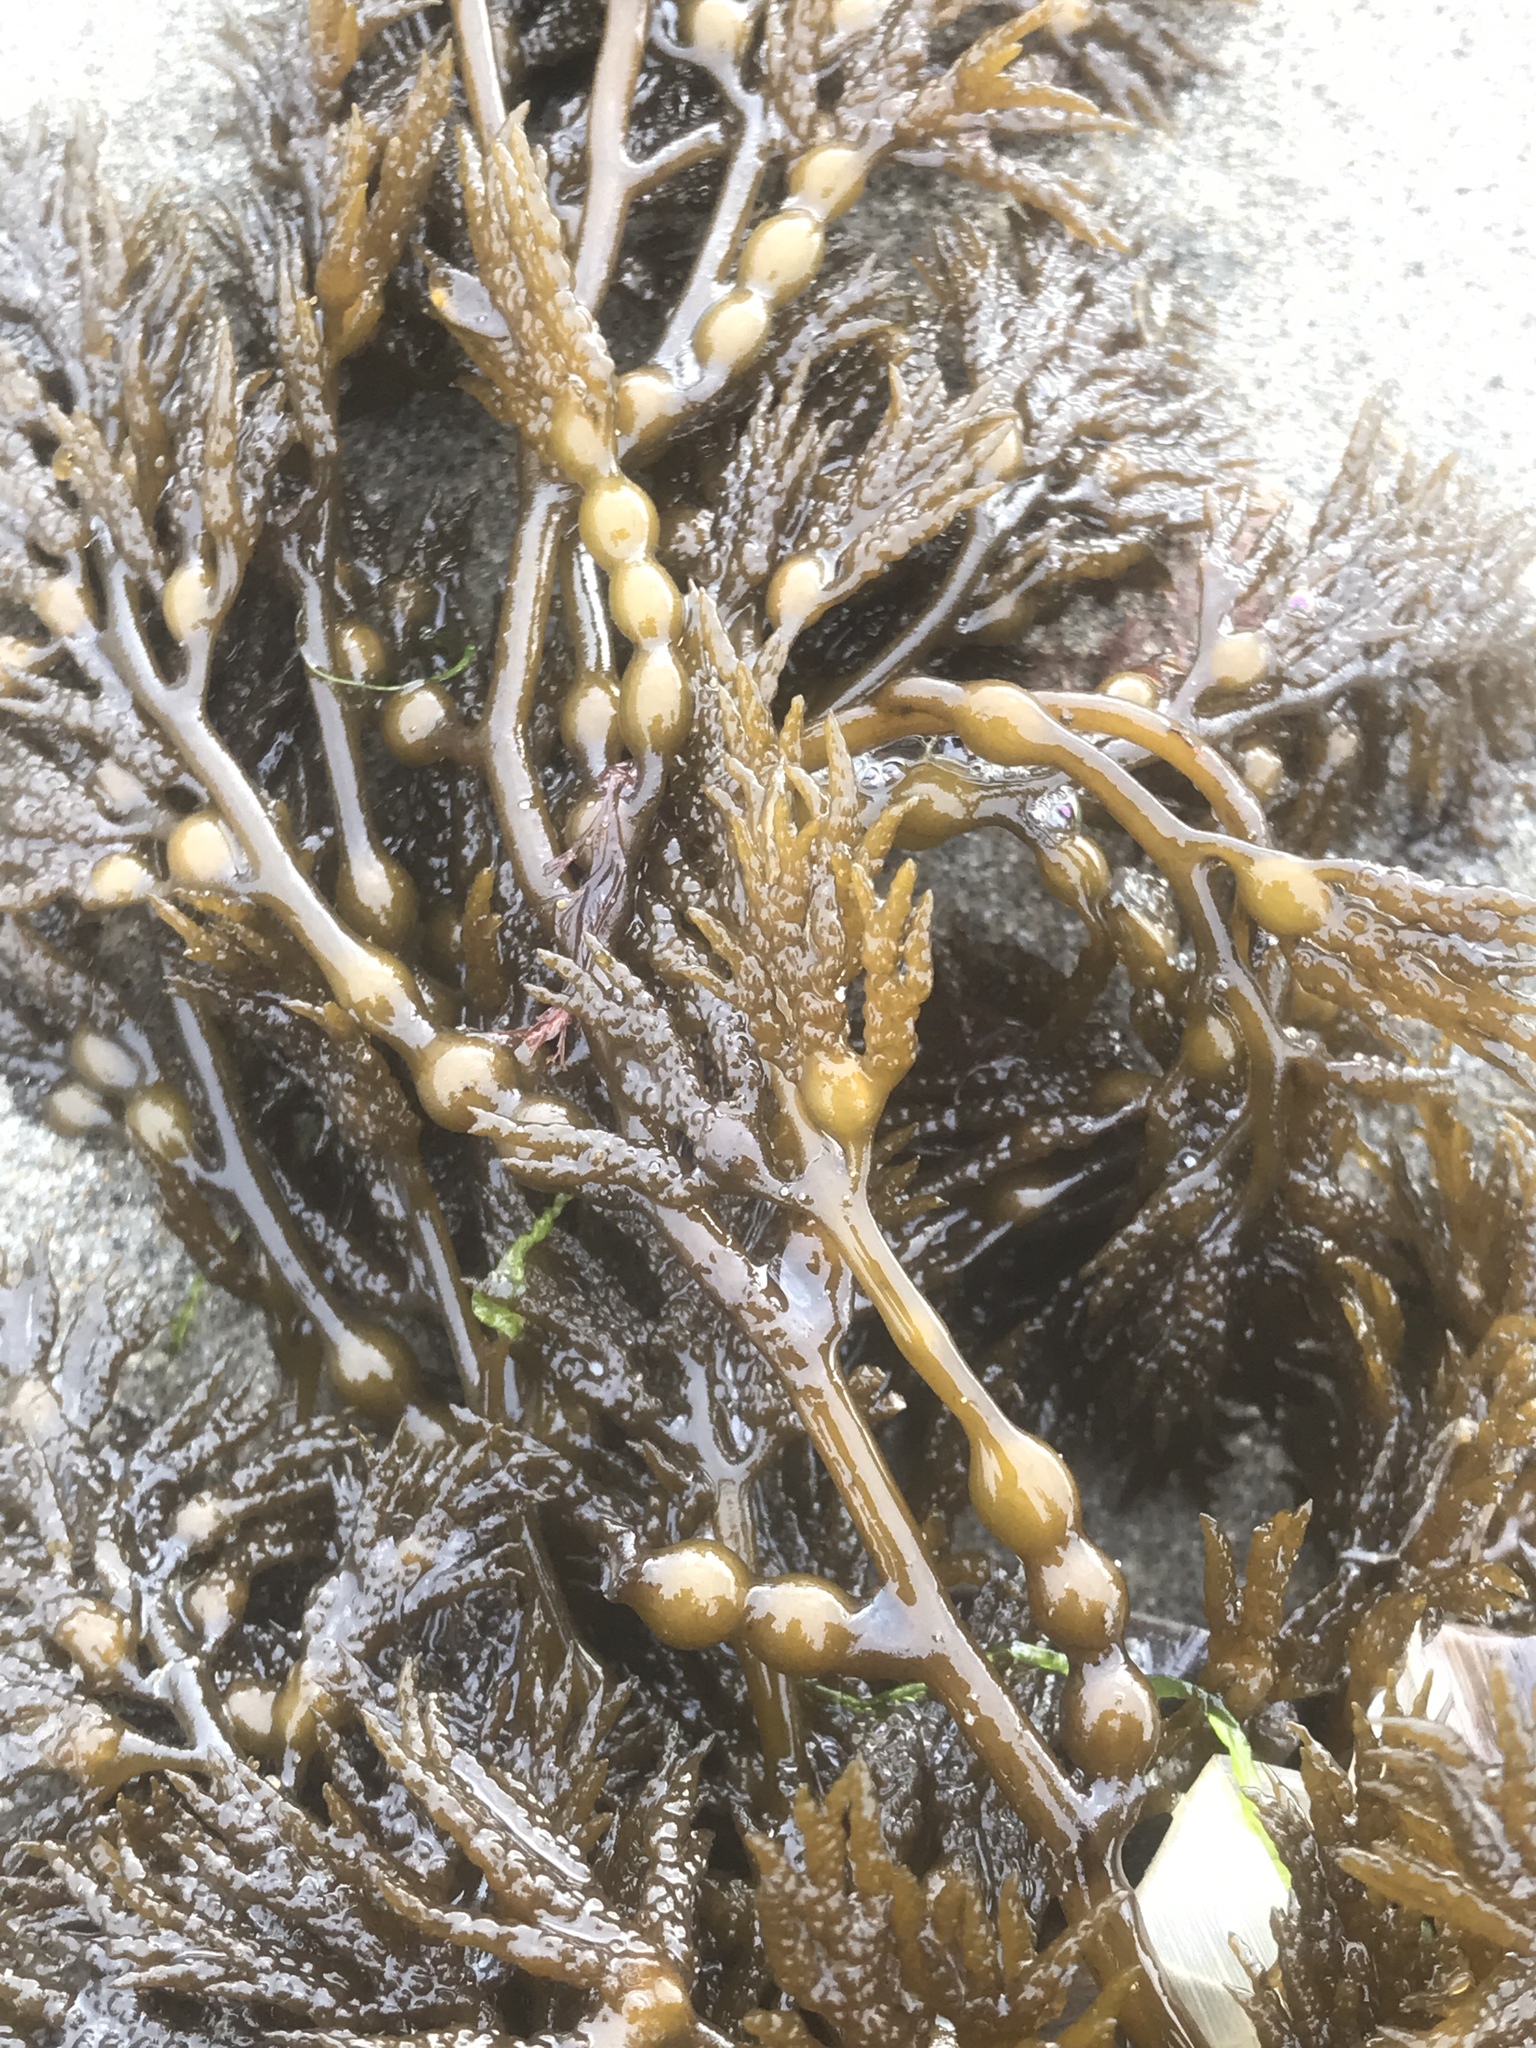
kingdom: Chromista
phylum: Ochrophyta
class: Phaeophyceae
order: Fucales
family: Sargassaceae
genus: Stephanocystis
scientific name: Stephanocystis
